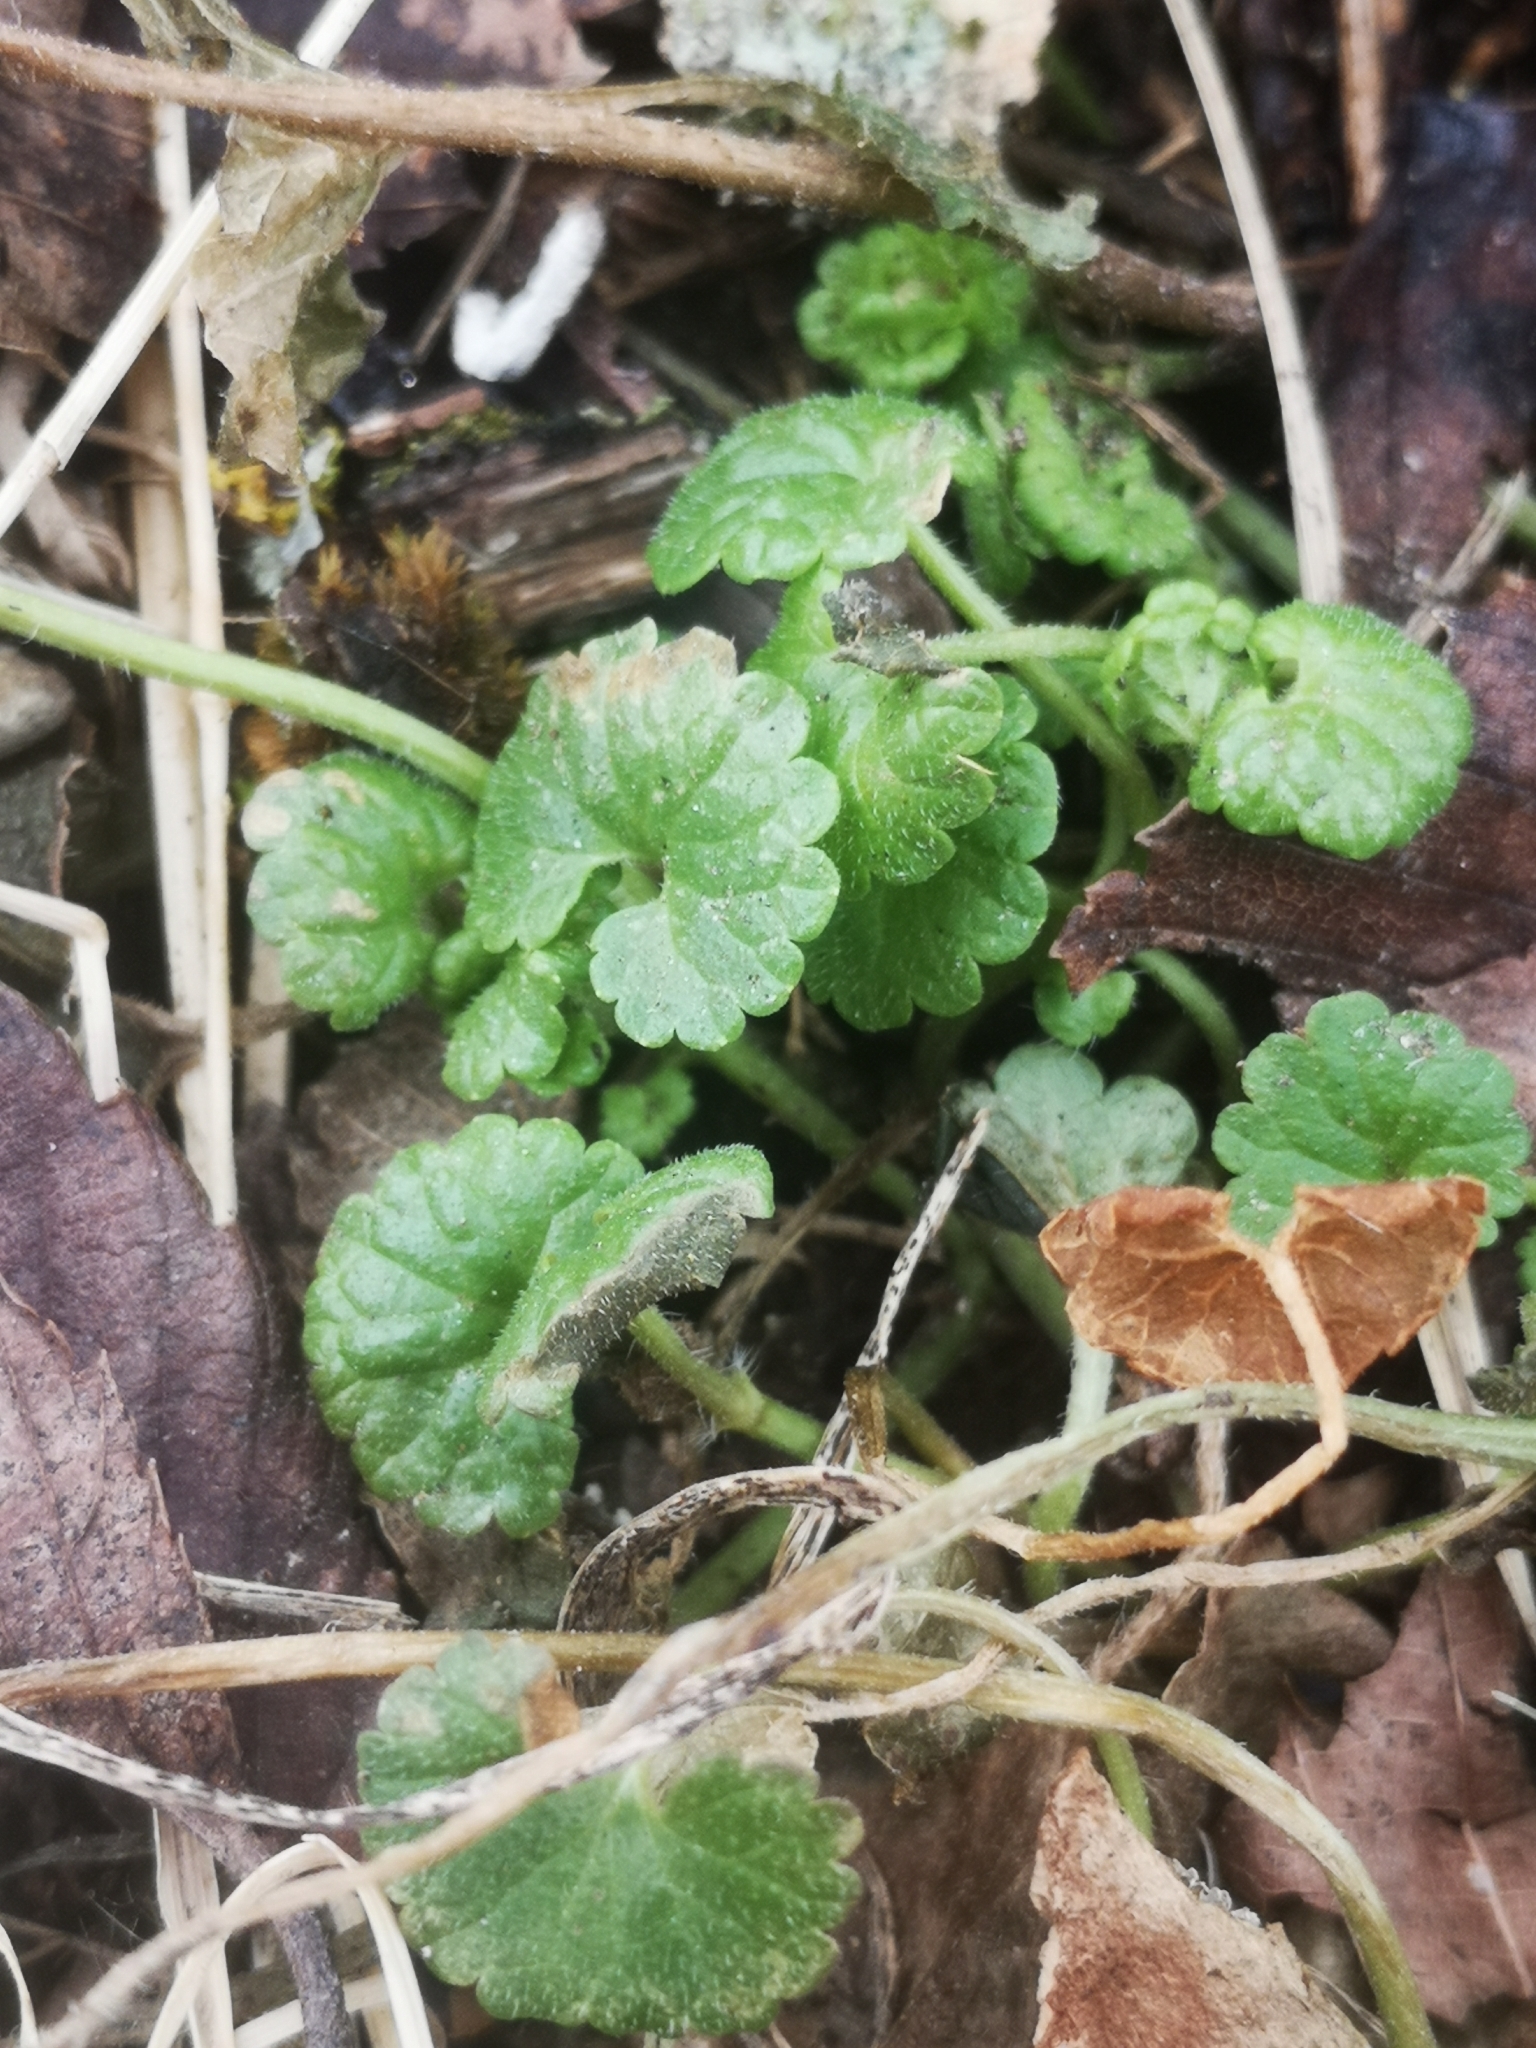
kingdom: Plantae
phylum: Tracheophyta
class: Magnoliopsida
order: Lamiales
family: Lamiaceae
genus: Glechoma
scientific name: Glechoma hederacea
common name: Ground ivy
